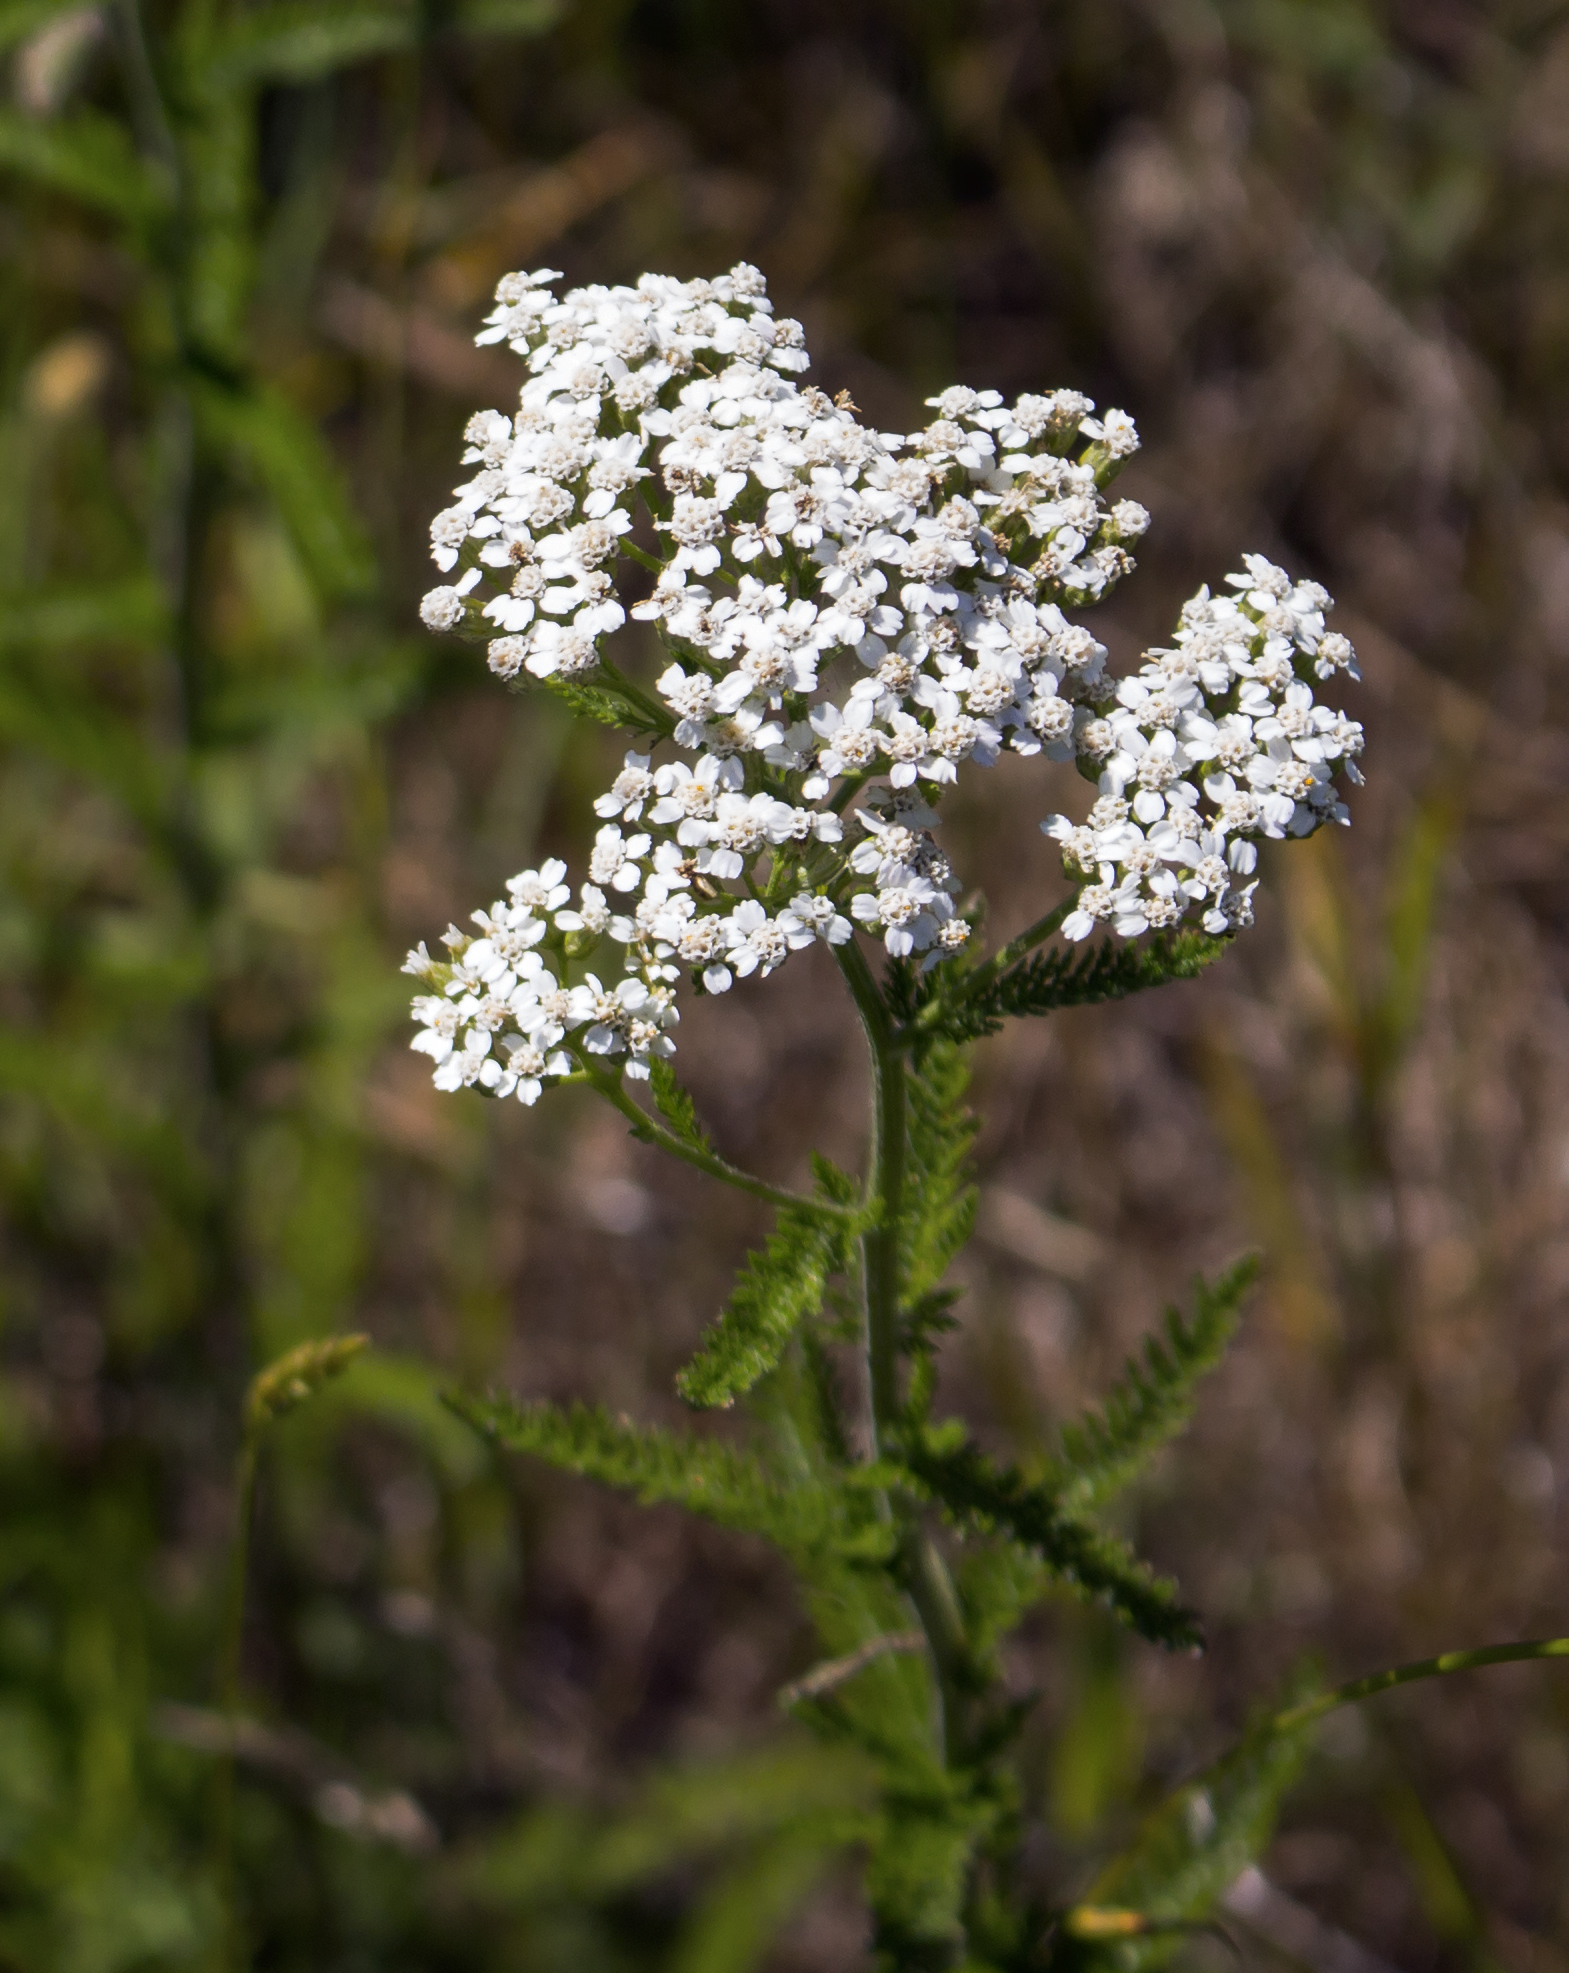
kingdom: Plantae
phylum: Tracheophyta
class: Magnoliopsida
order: Asterales
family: Asteraceae
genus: Achillea
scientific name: Achillea millefolium
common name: Yarrow
